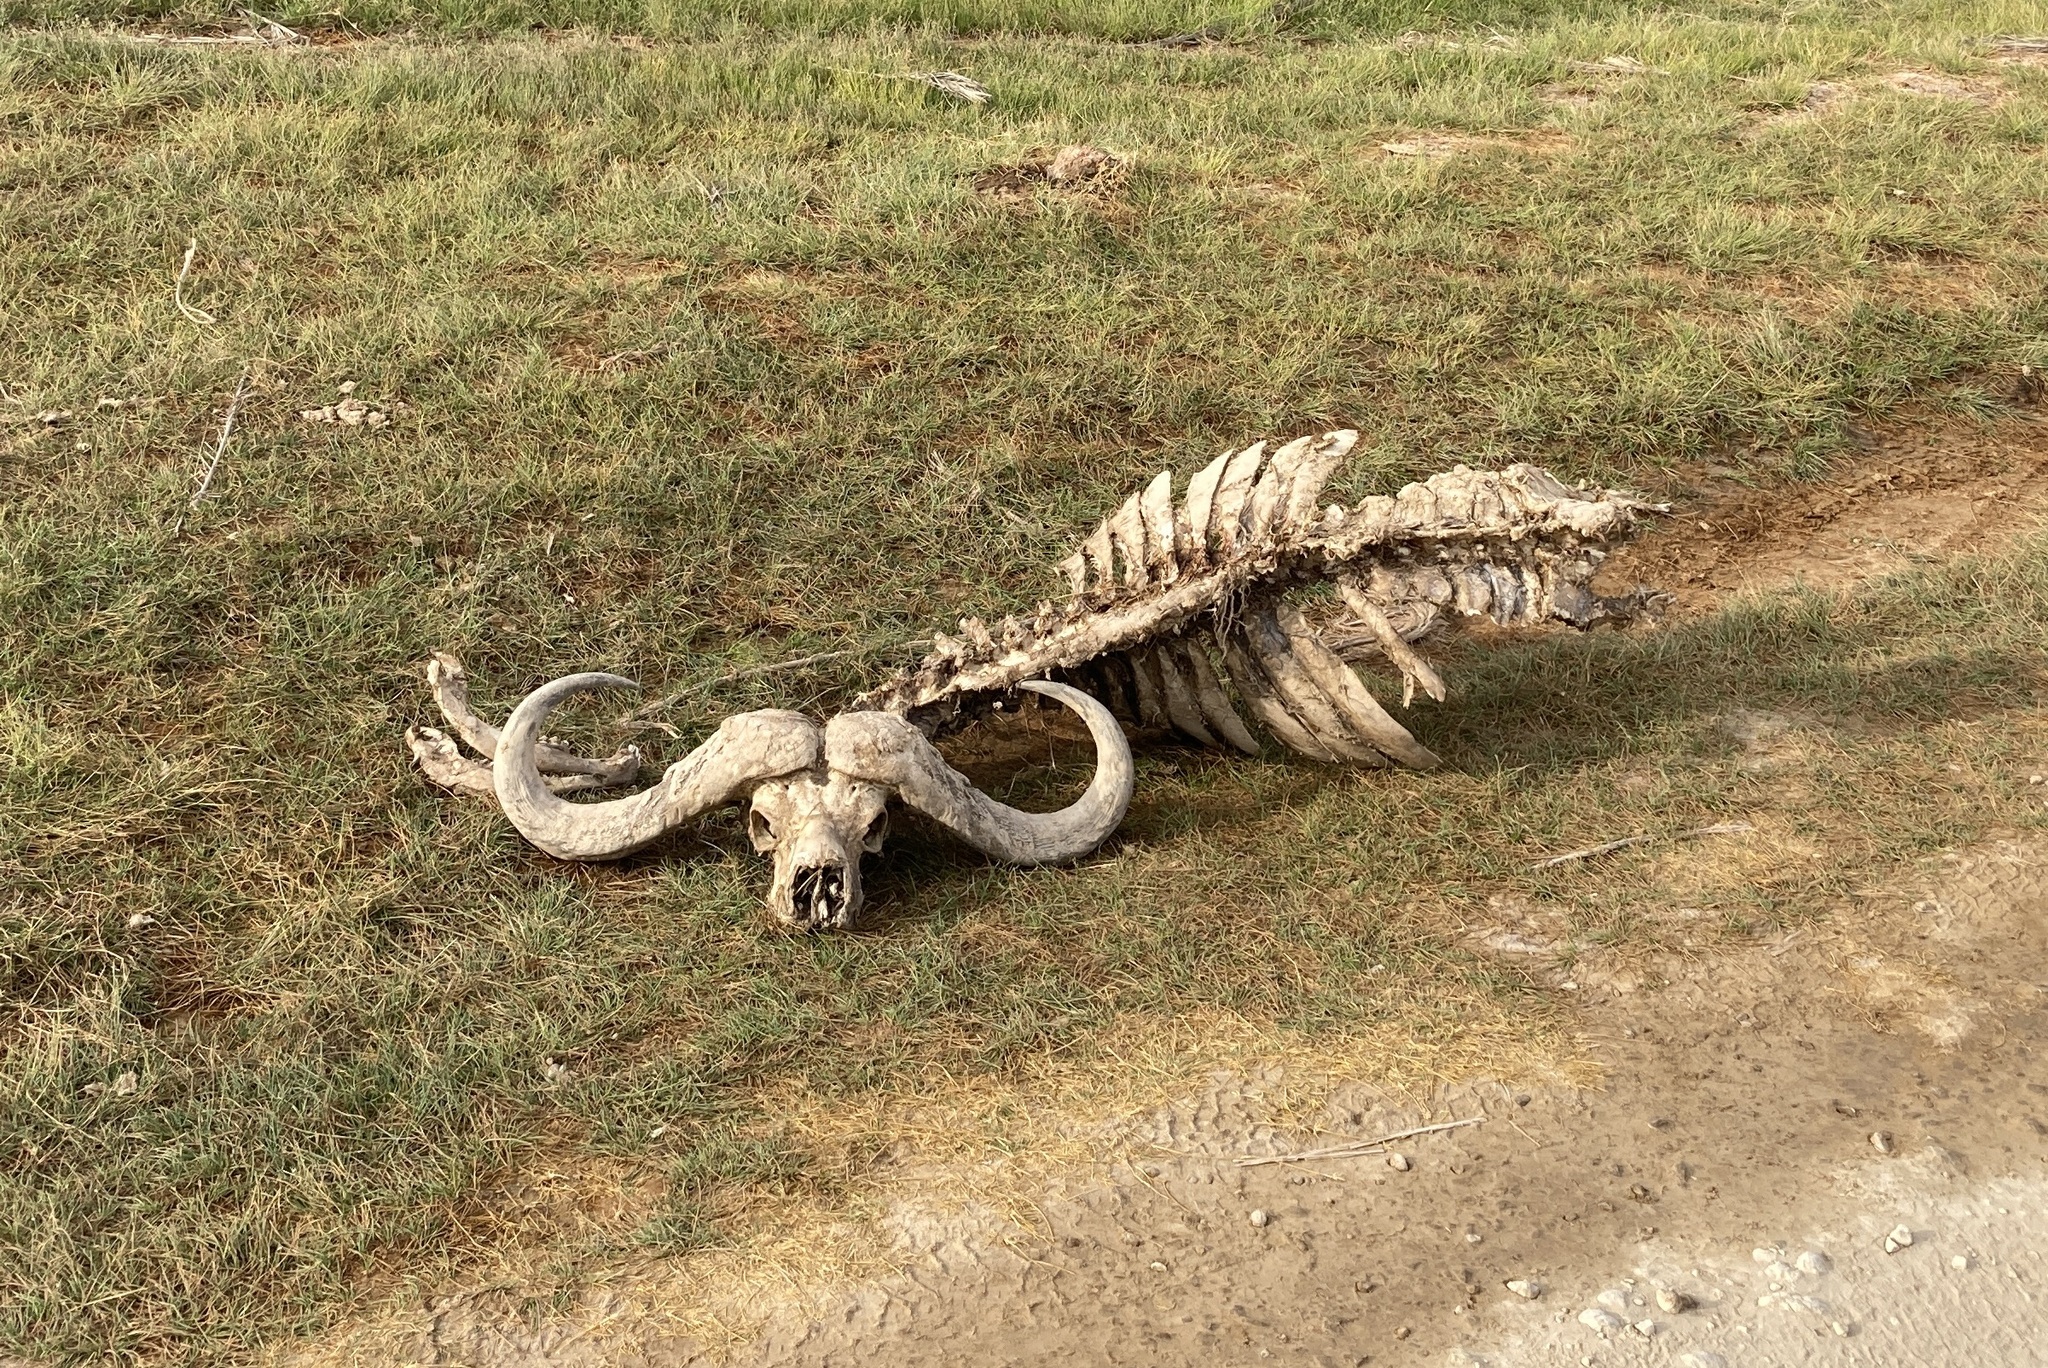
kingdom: Animalia
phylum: Chordata
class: Mammalia
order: Artiodactyla
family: Bovidae
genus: Syncerus
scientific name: Syncerus caffer
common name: African buffalo
